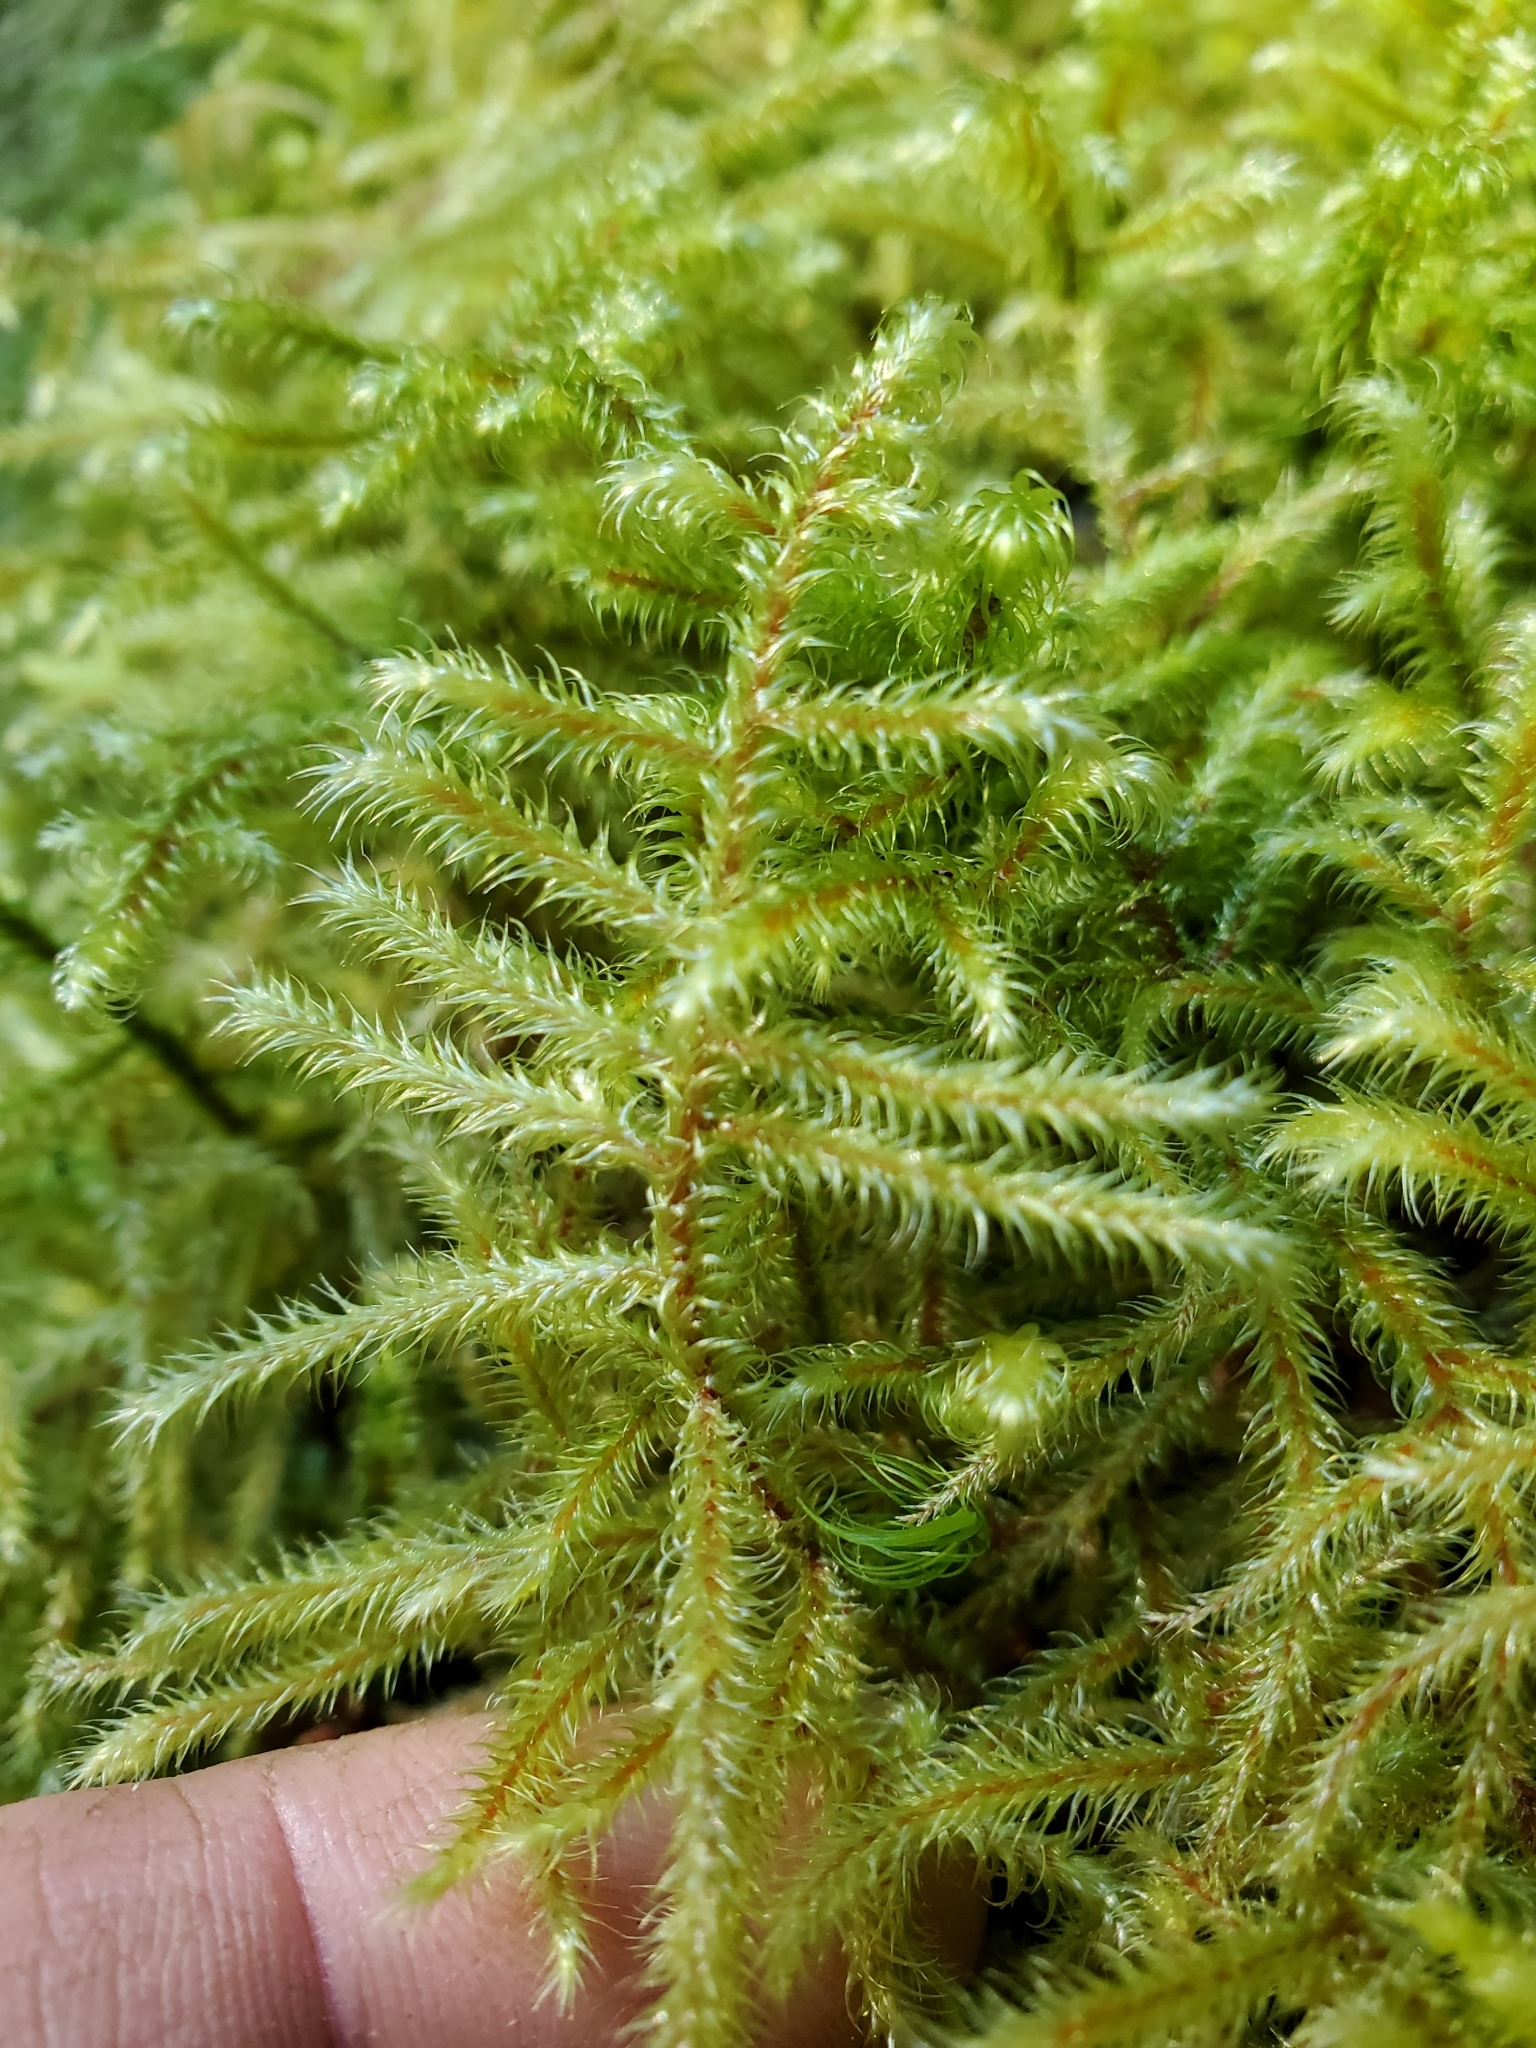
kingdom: Plantae
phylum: Bryophyta
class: Bryopsida
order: Hypnales
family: Hylocomiaceae
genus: Rhytidiadelphus
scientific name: Rhytidiadelphus loreus
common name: Lanky moss
